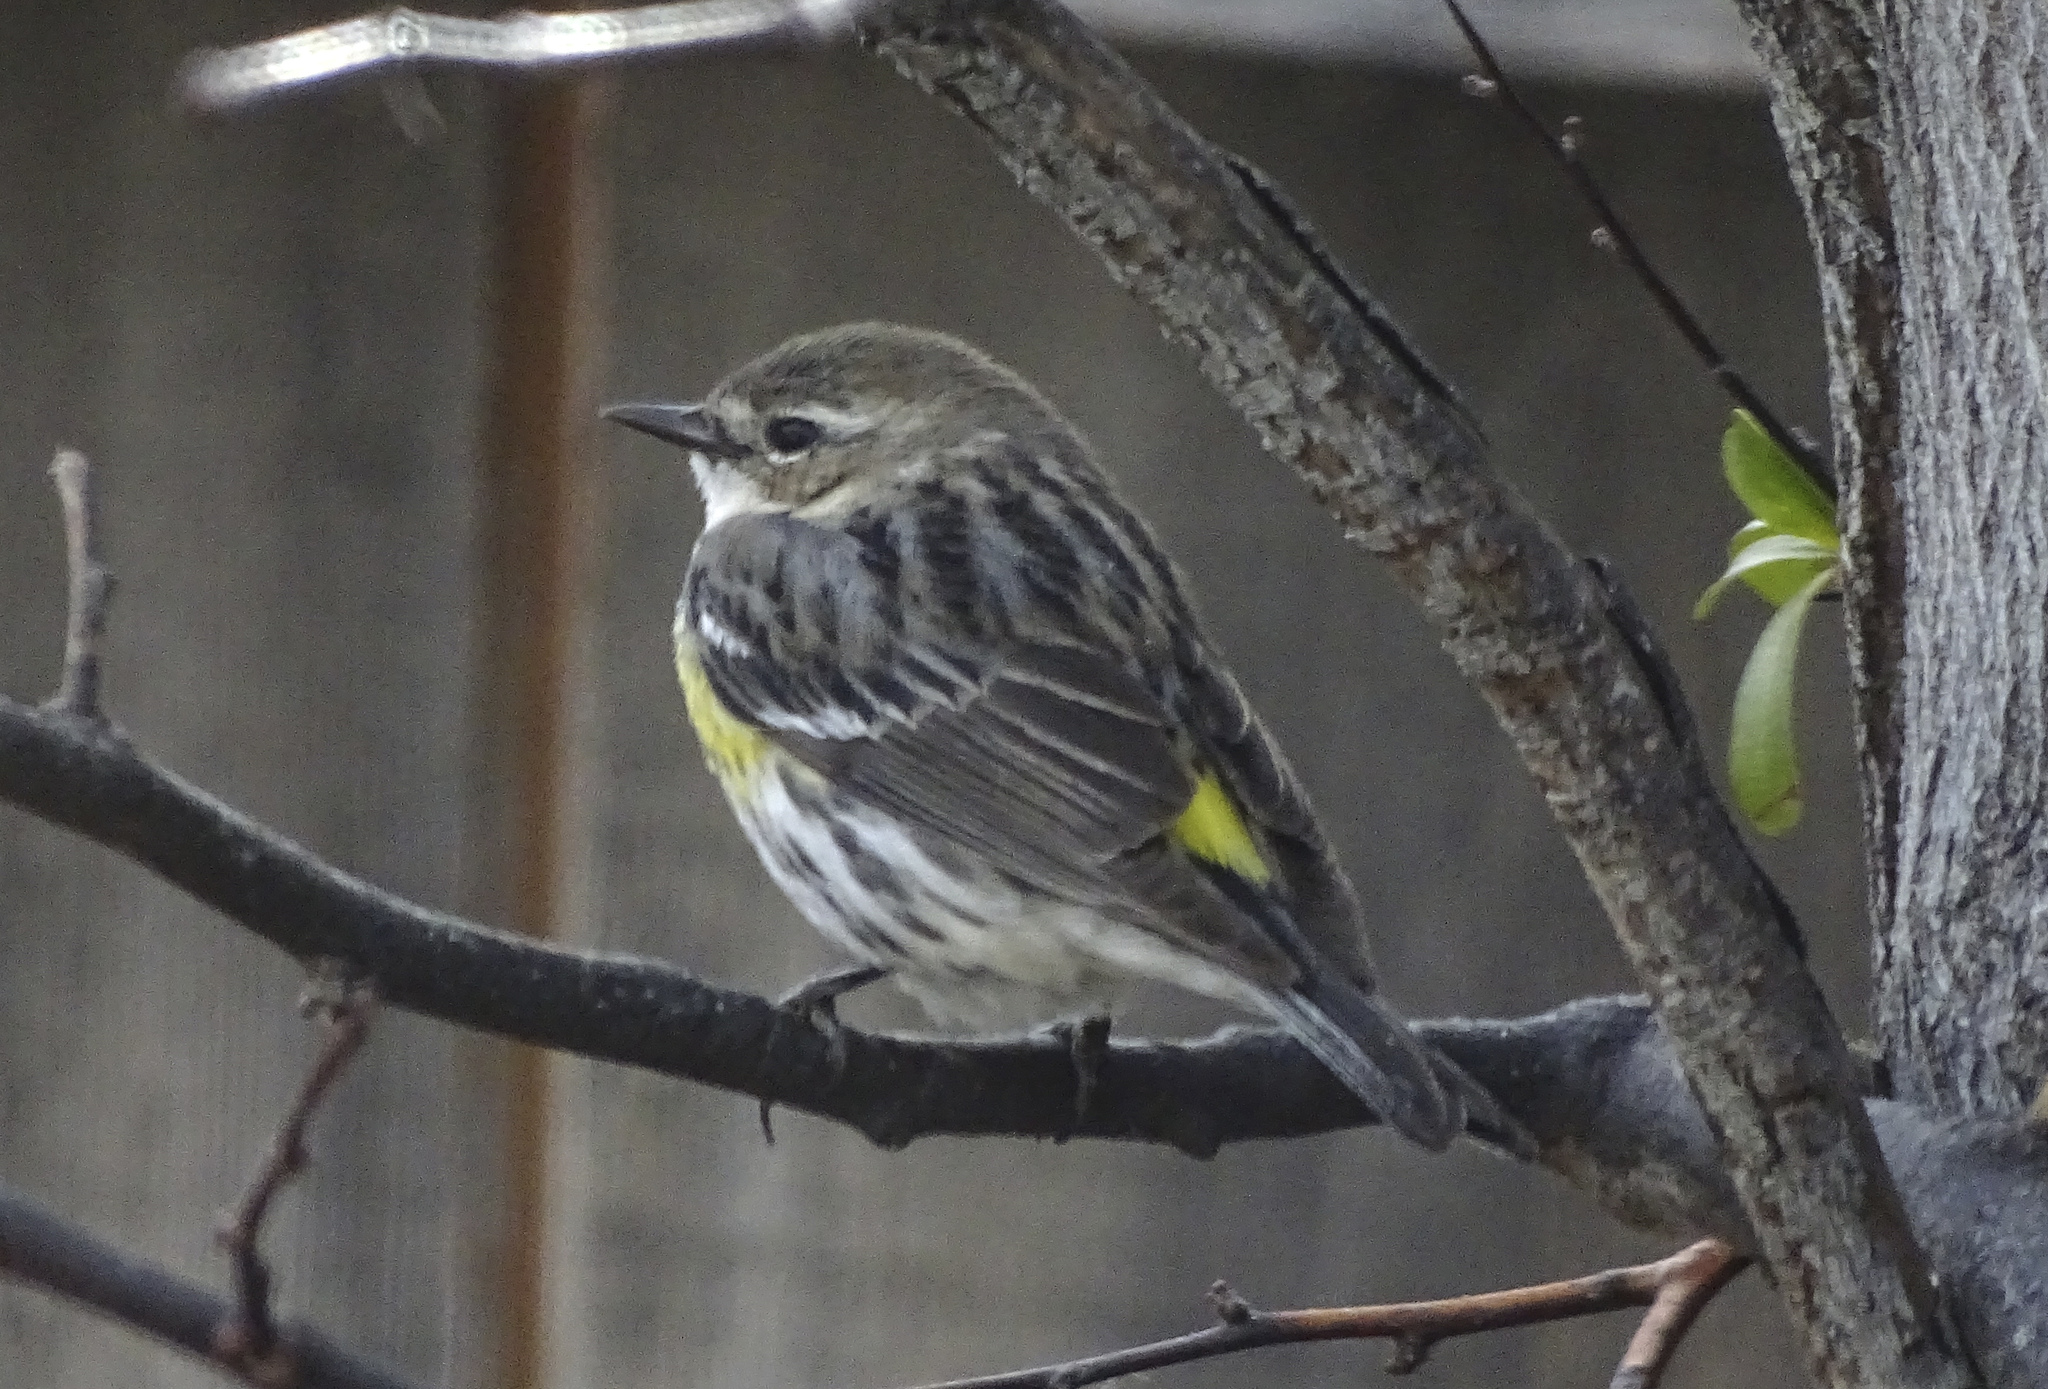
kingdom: Animalia
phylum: Chordata
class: Aves
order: Passeriformes
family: Parulidae
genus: Setophaga
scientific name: Setophaga coronata
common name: Myrtle warbler
